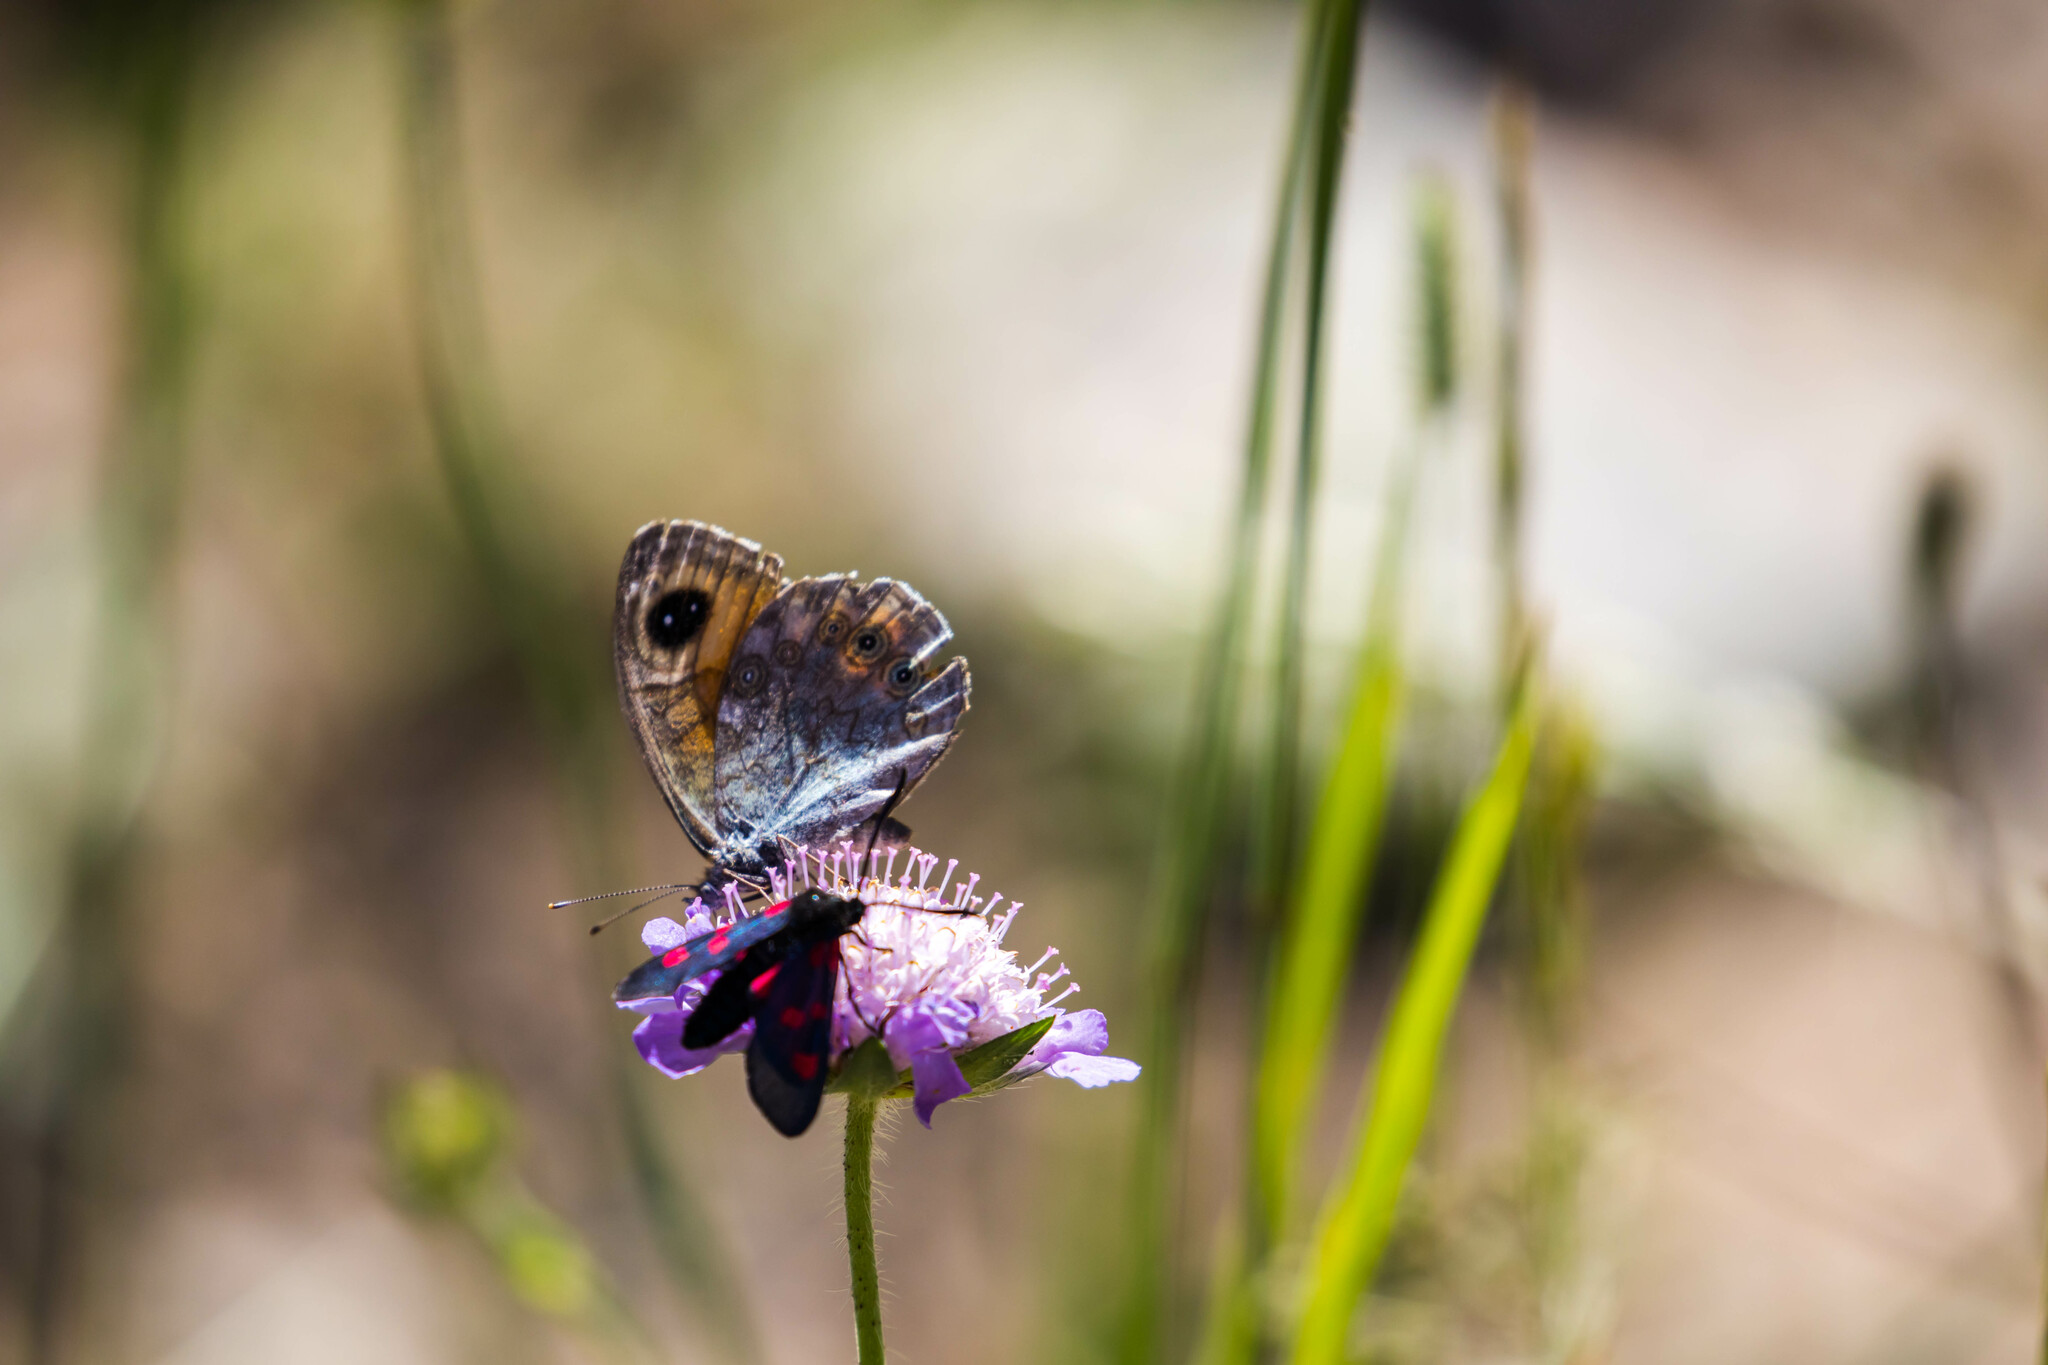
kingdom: Animalia
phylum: Arthropoda
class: Insecta
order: Lepidoptera
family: Nymphalidae
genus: Pararge
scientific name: Pararge Lasiommata maera
